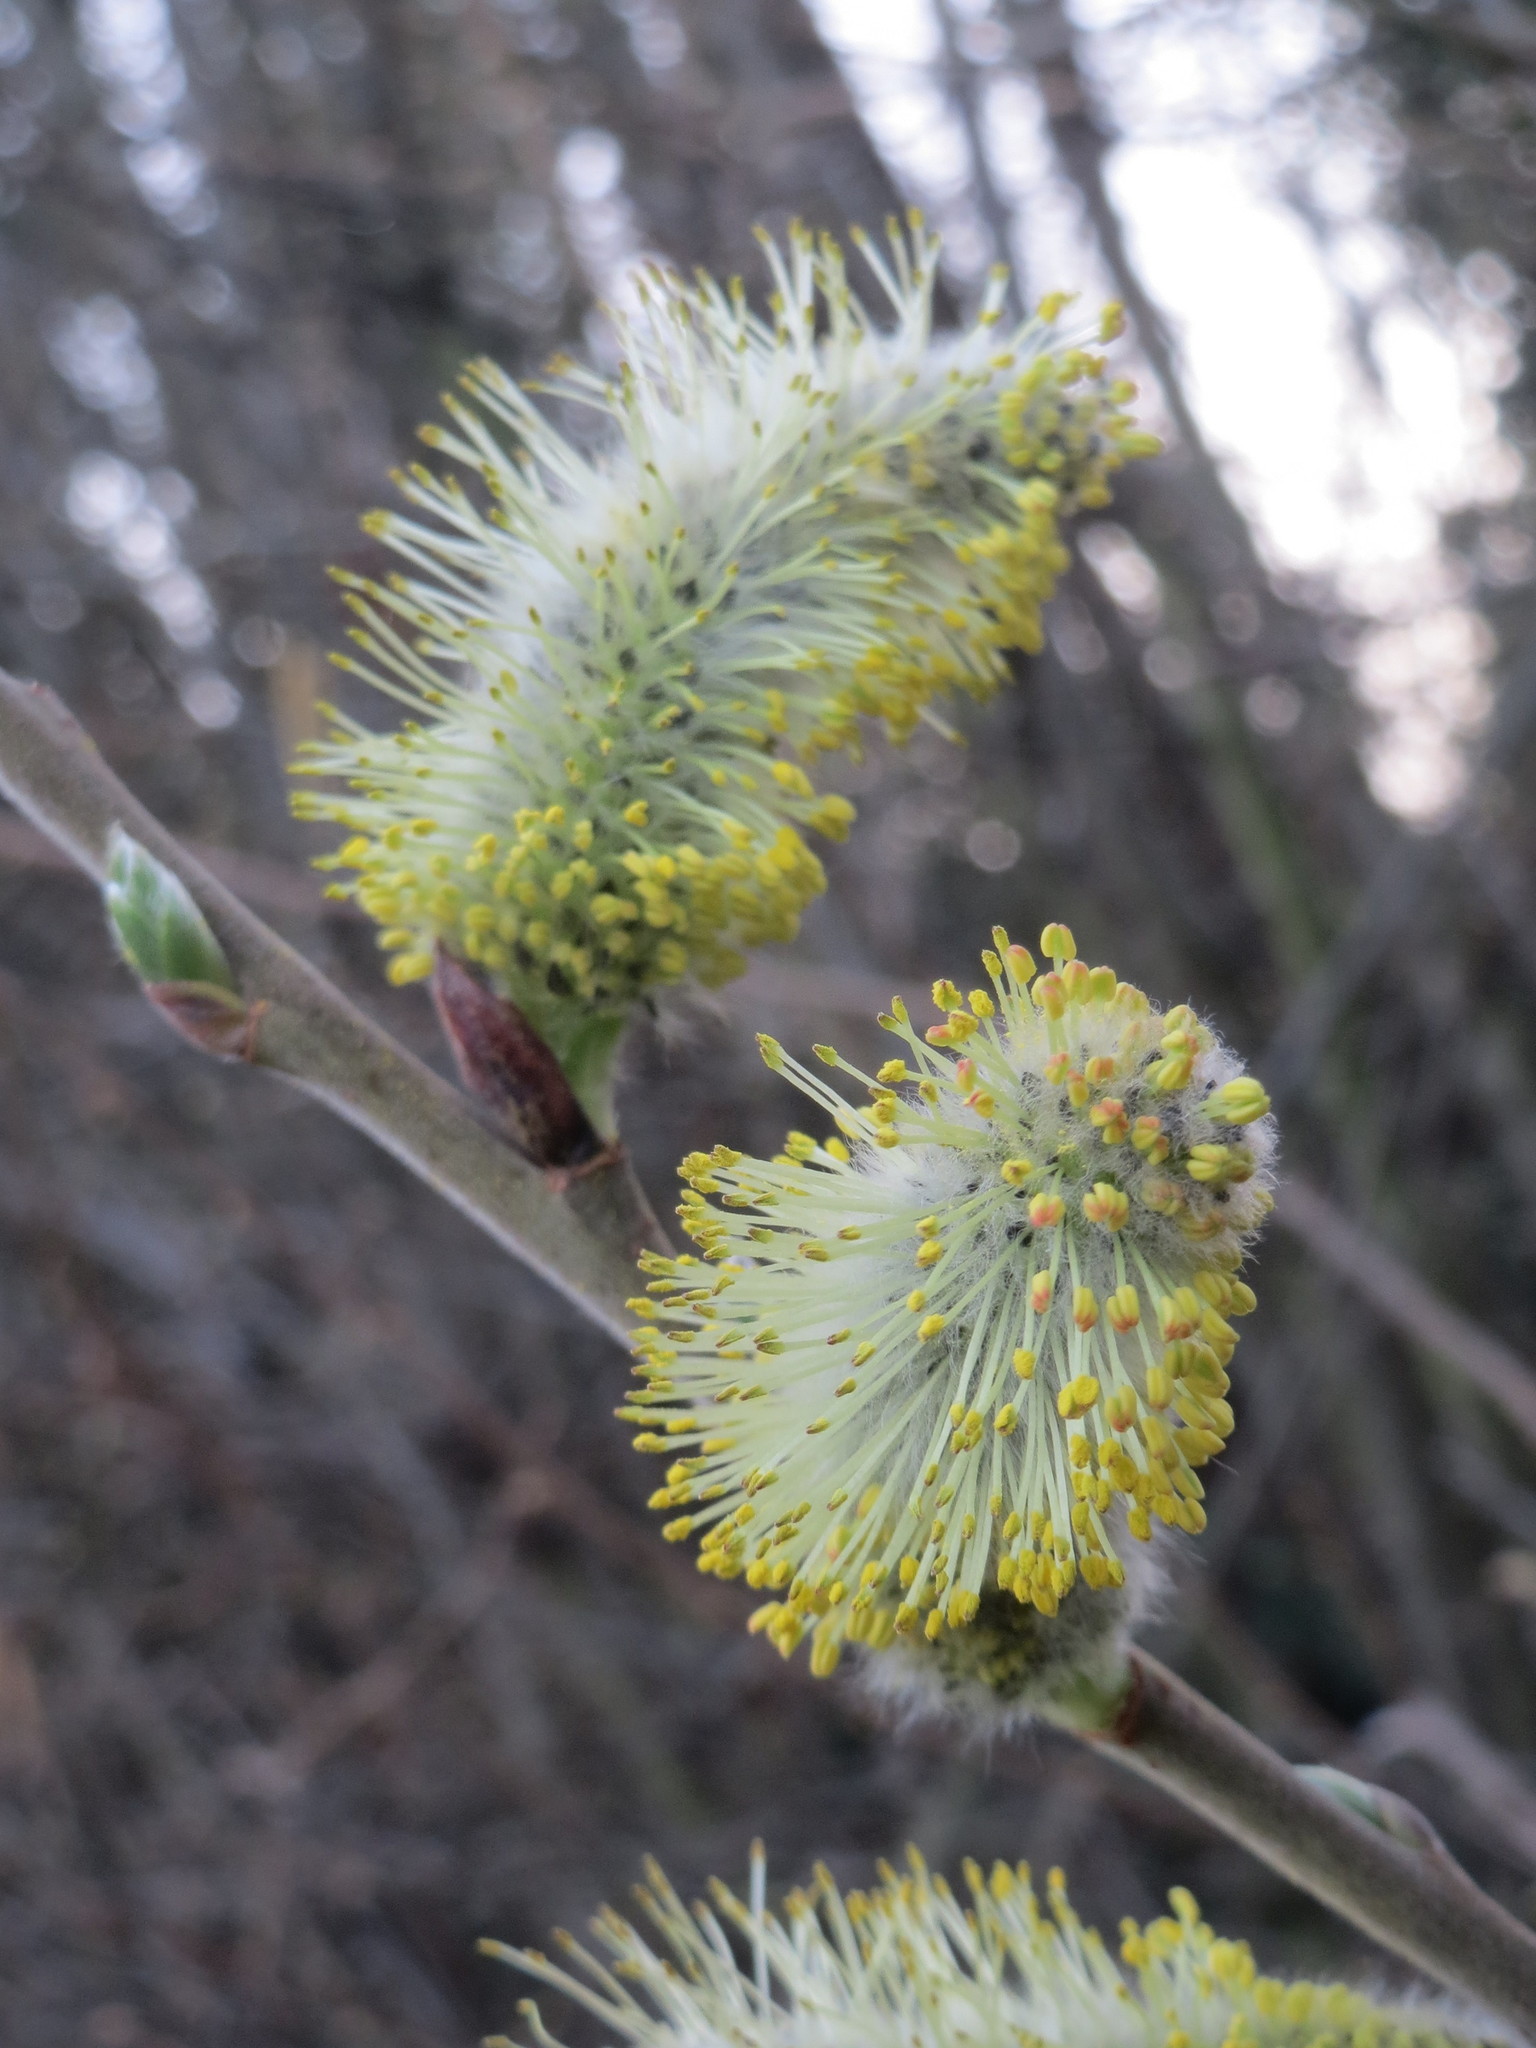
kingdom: Plantae
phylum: Tracheophyta
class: Magnoliopsida
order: Malpighiales
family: Salicaceae
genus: Salix
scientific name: Salix caprea
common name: Goat willow
